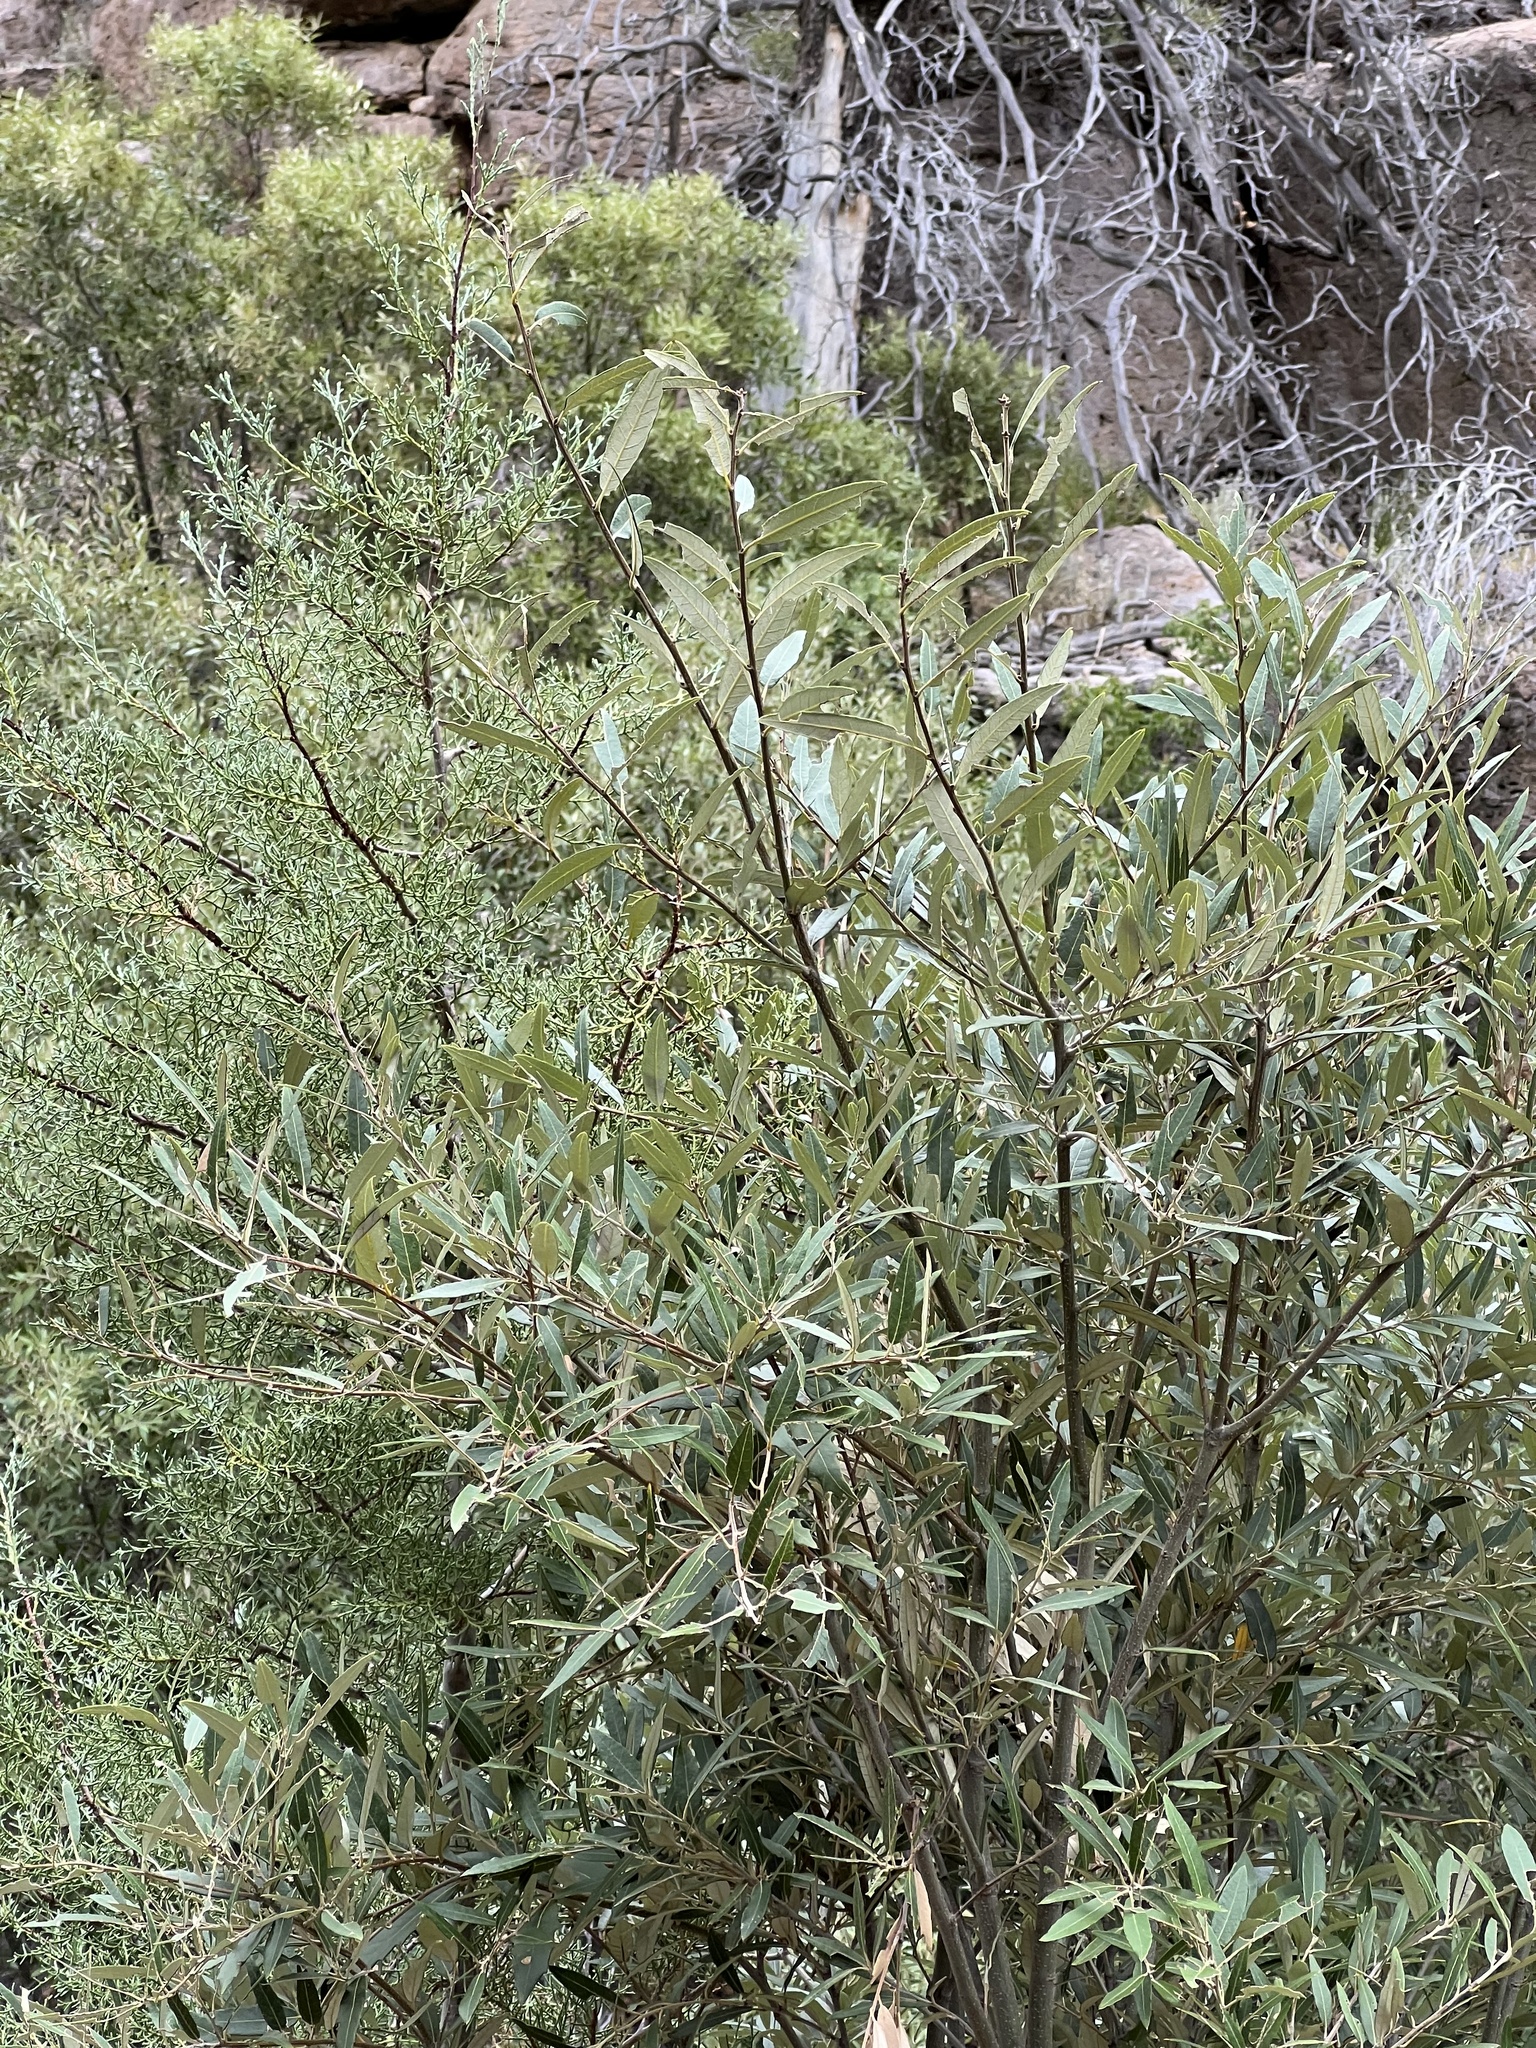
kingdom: Plantae
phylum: Tracheophyta
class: Magnoliopsida
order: Fagales
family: Fagaceae
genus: Quercus
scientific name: Quercus hypoleucoides
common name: Silverleaf oak
